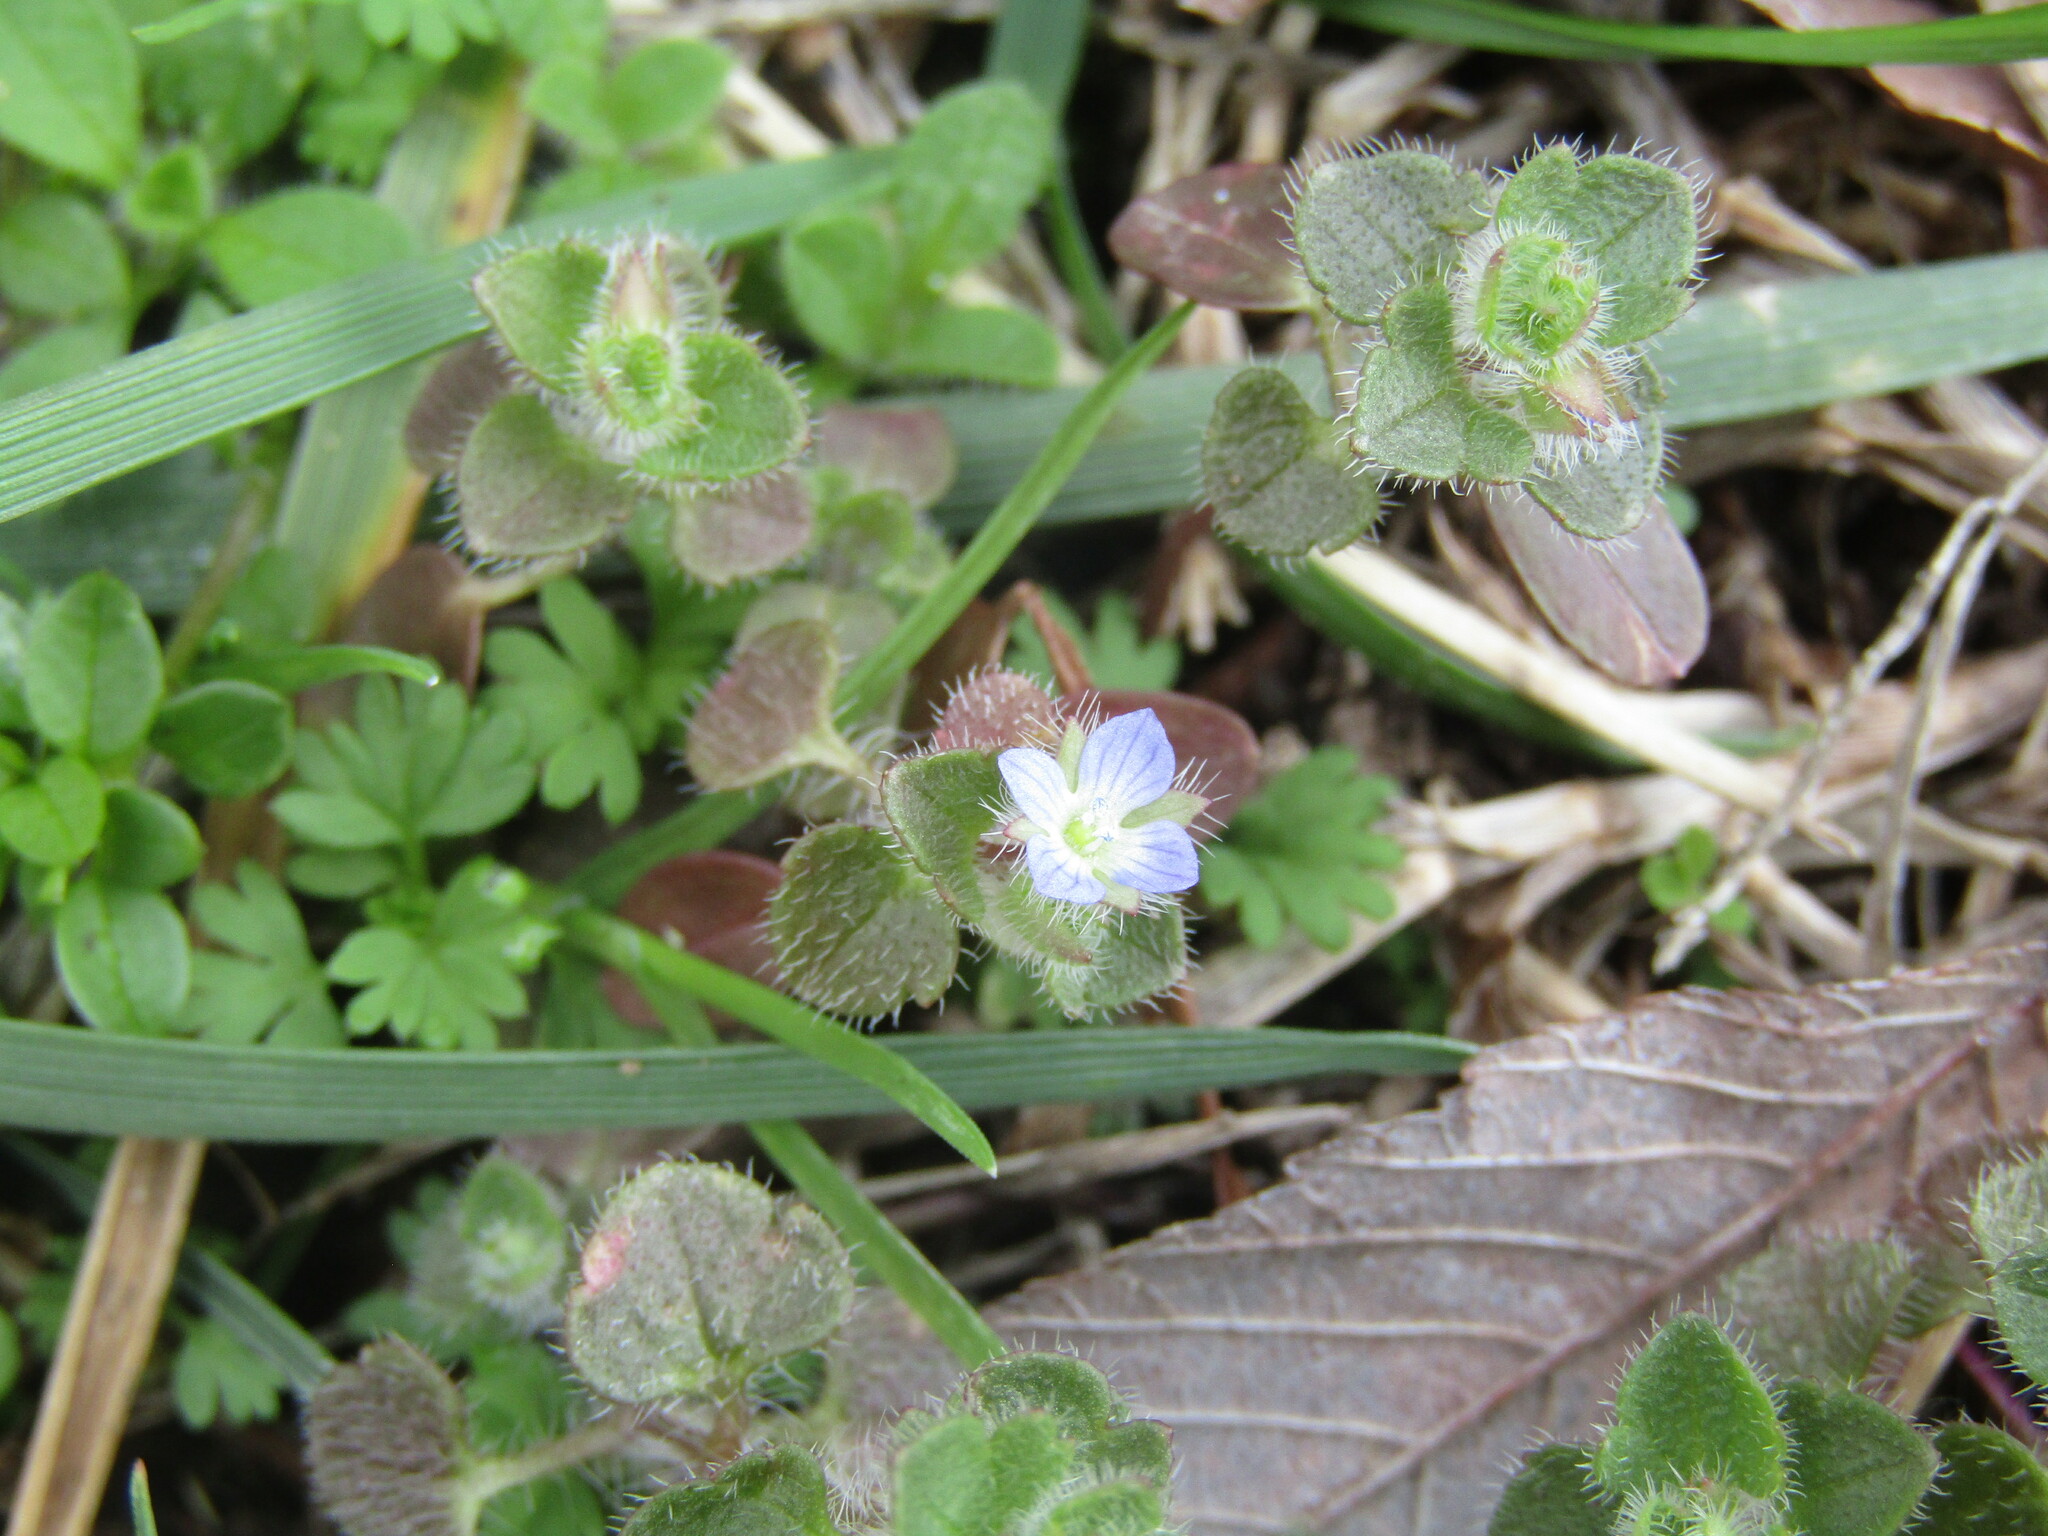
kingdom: Plantae
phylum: Tracheophyta
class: Magnoliopsida
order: Lamiales
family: Plantaginaceae
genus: Veronica
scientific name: Veronica hederifolia
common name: Ivy-leaved speedwell
